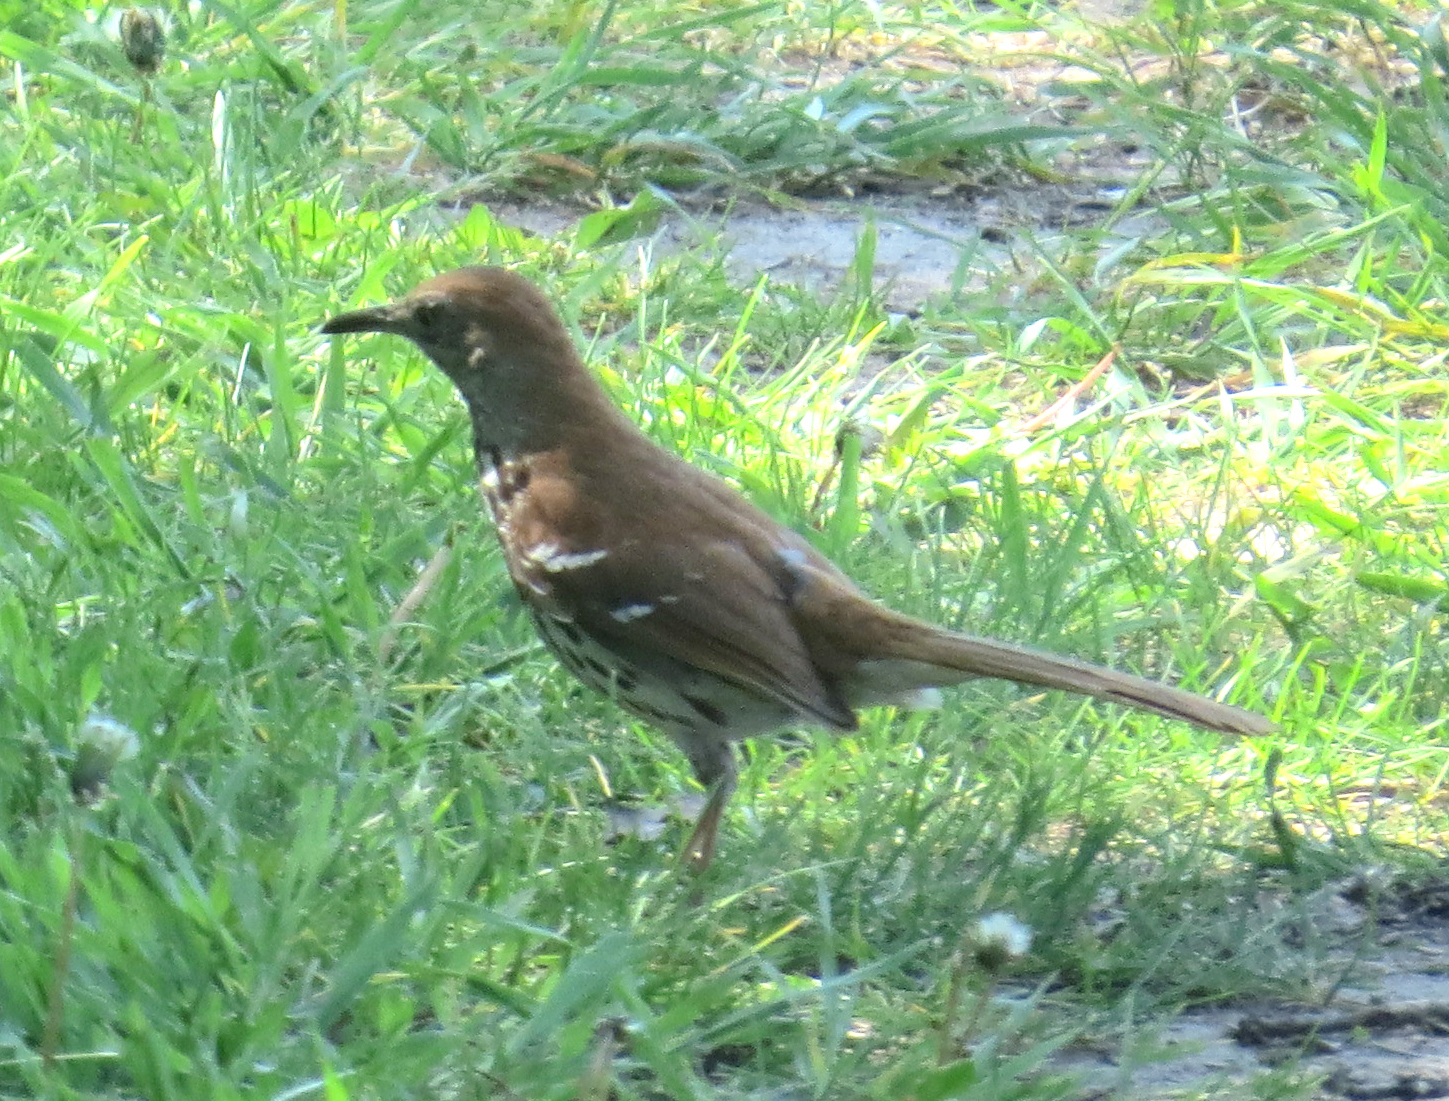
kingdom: Animalia
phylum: Chordata
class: Aves
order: Passeriformes
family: Mimidae
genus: Toxostoma
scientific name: Toxostoma rufum
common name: Brown thrasher
